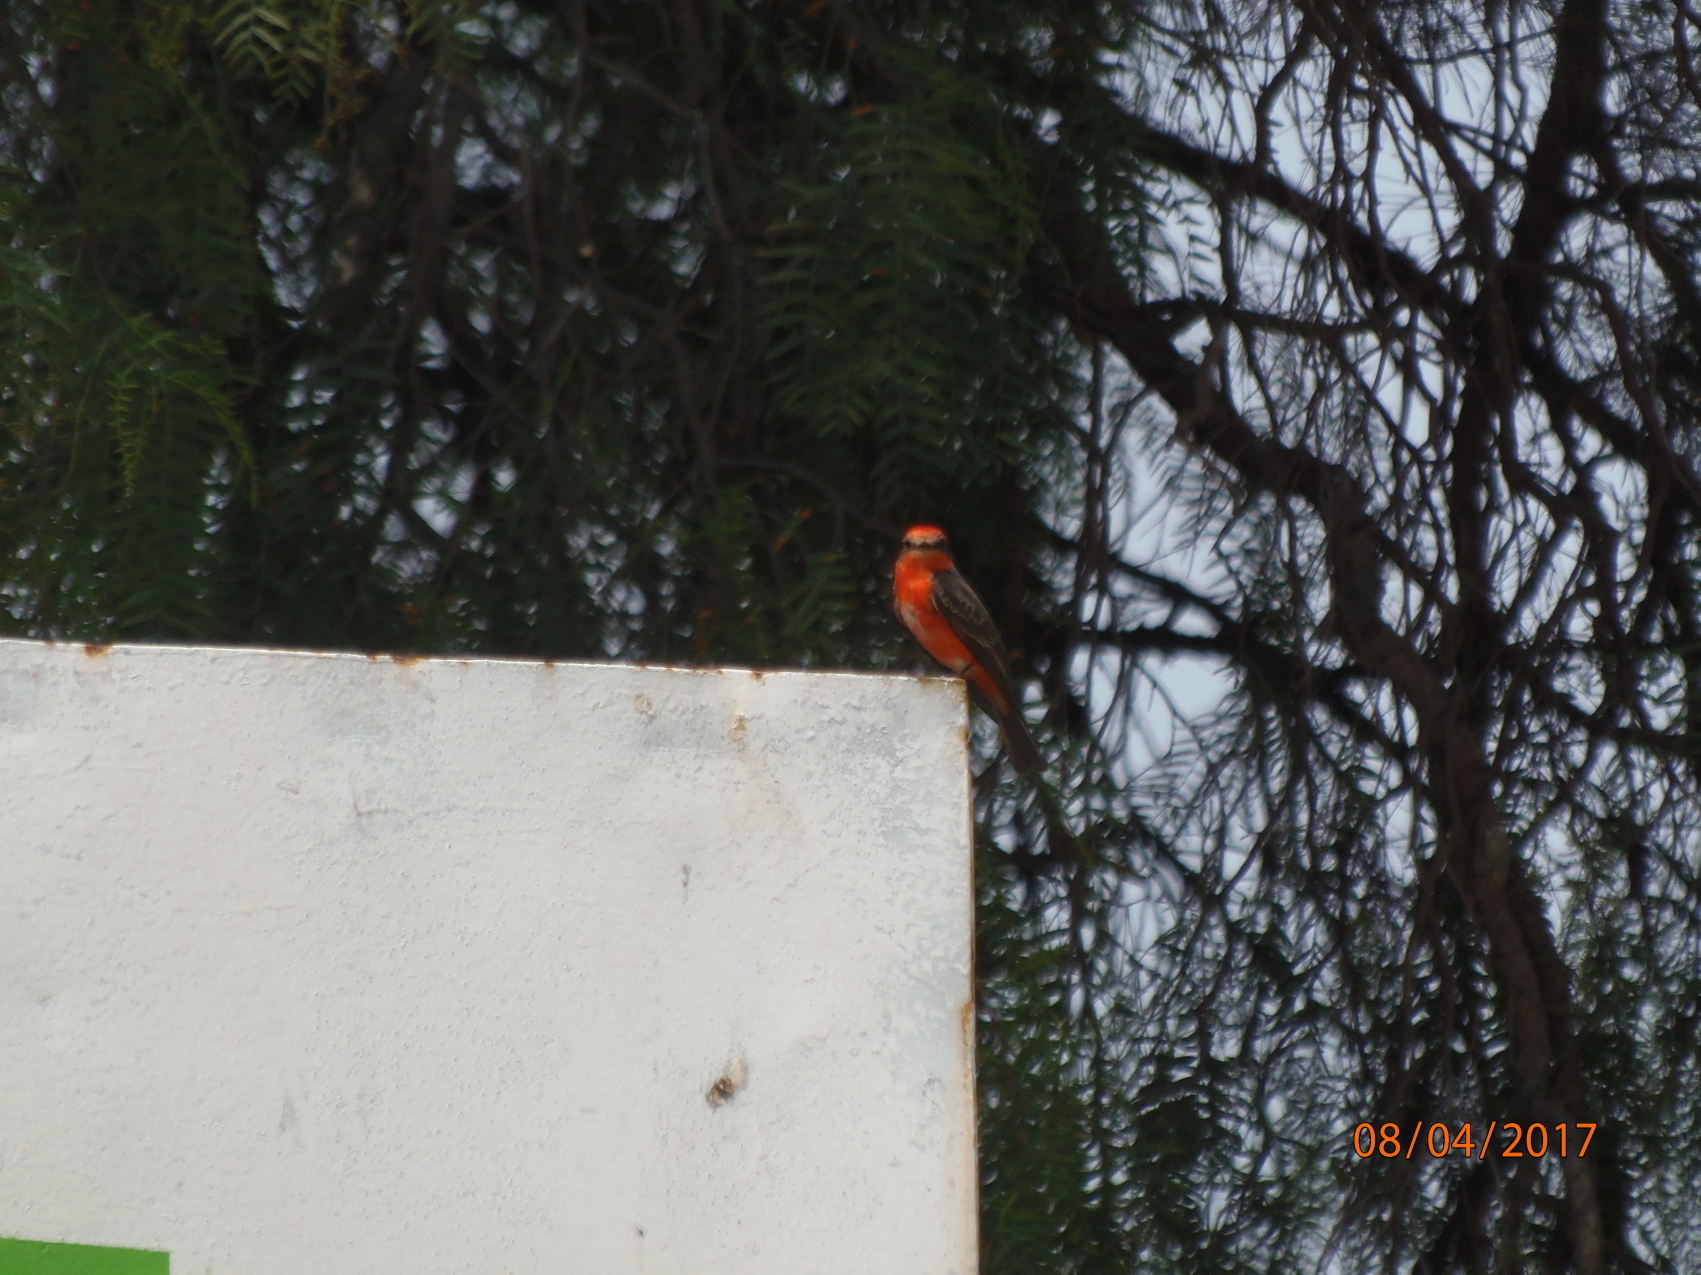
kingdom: Animalia
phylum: Chordata
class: Aves
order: Passeriformes
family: Tyrannidae
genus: Pyrocephalus
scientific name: Pyrocephalus rubinus
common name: Vermilion flycatcher
